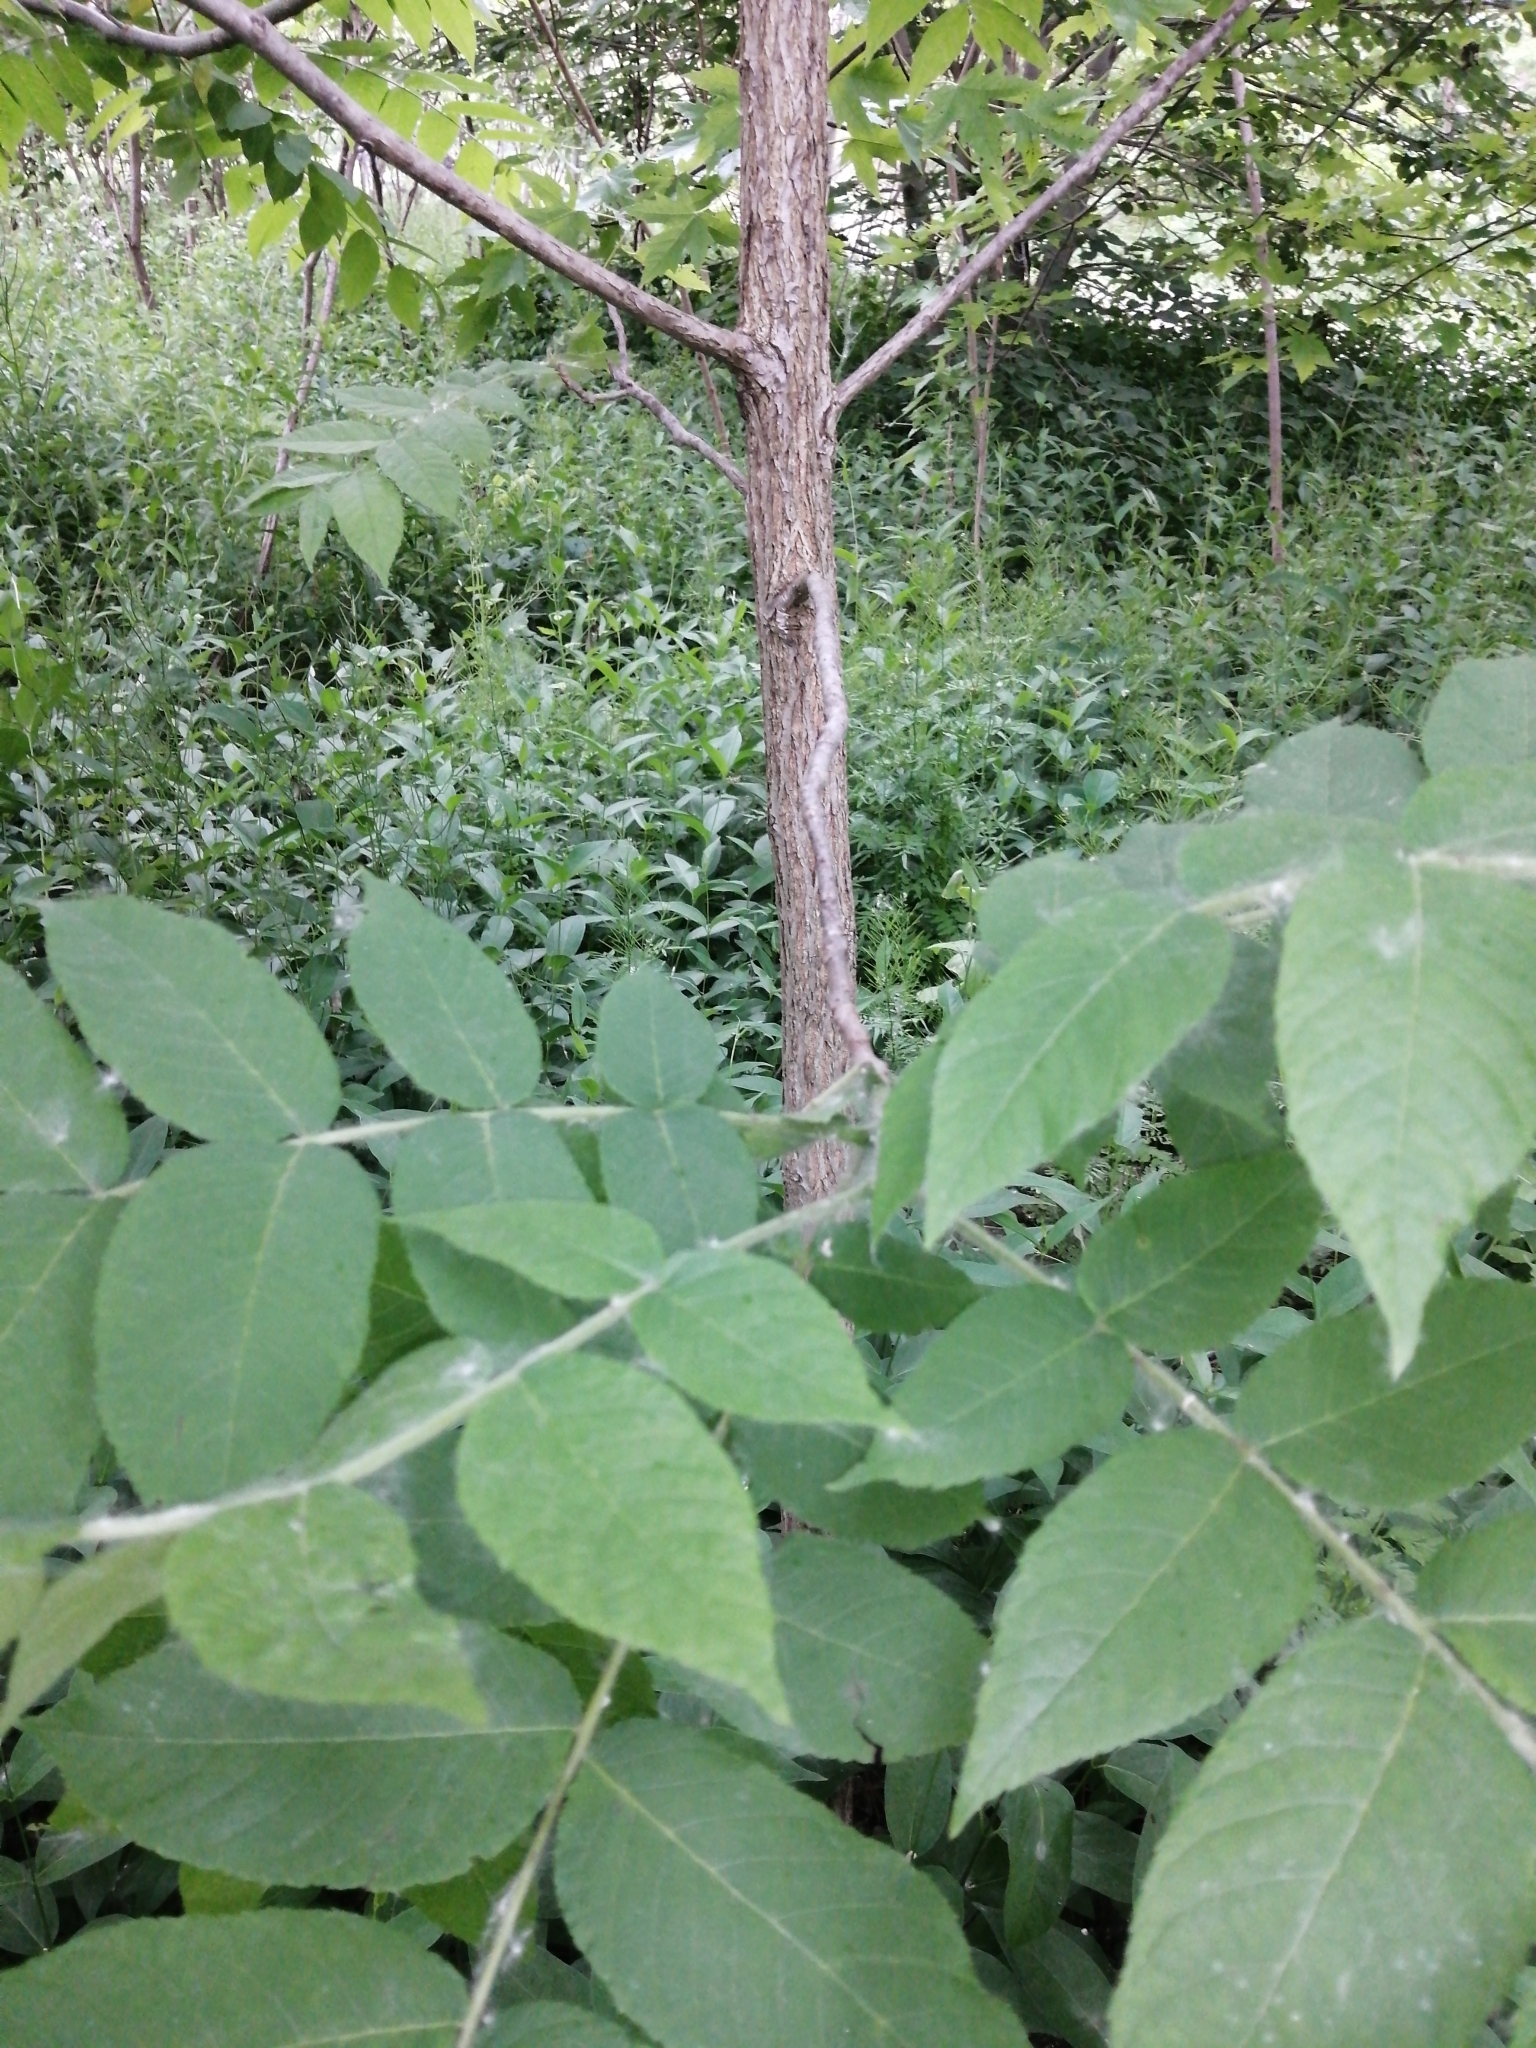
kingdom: Plantae
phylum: Tracheophyta
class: Magnoliopsida
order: Fagales
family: Juglandaceae
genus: Juglans
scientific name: Juglans nigra
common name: Black walnut
